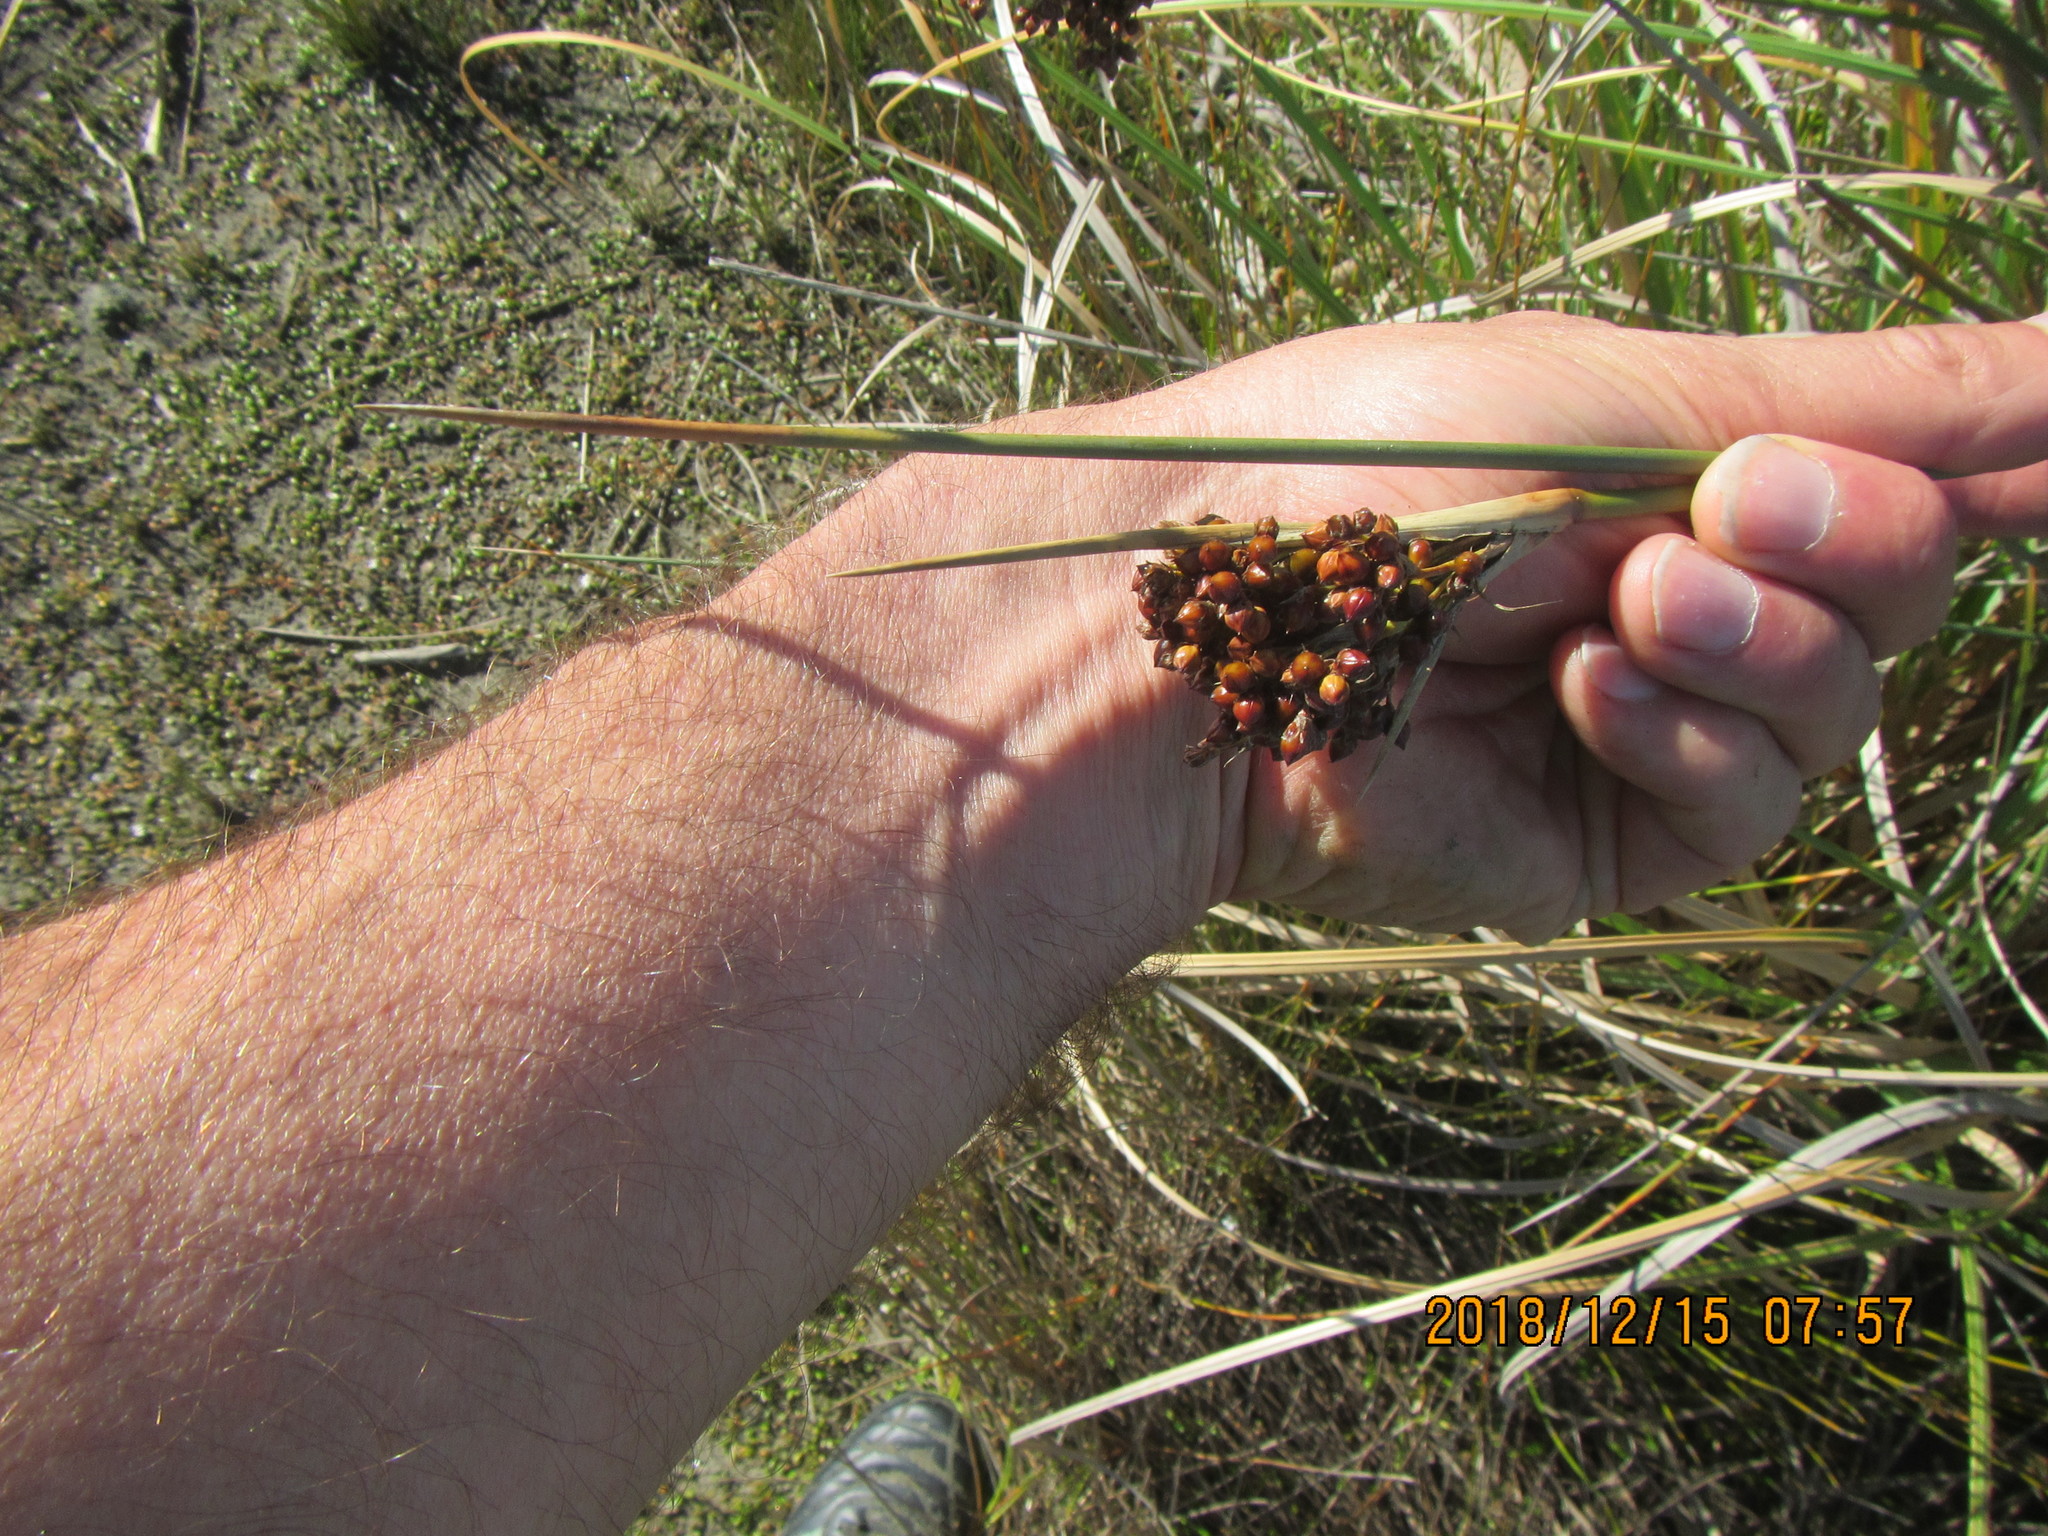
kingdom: Plantae
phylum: Tracheophyta
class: Liliopsida
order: Poales
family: Juncaceae
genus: Juncus
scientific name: Juncus acutus
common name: Sharp rush
